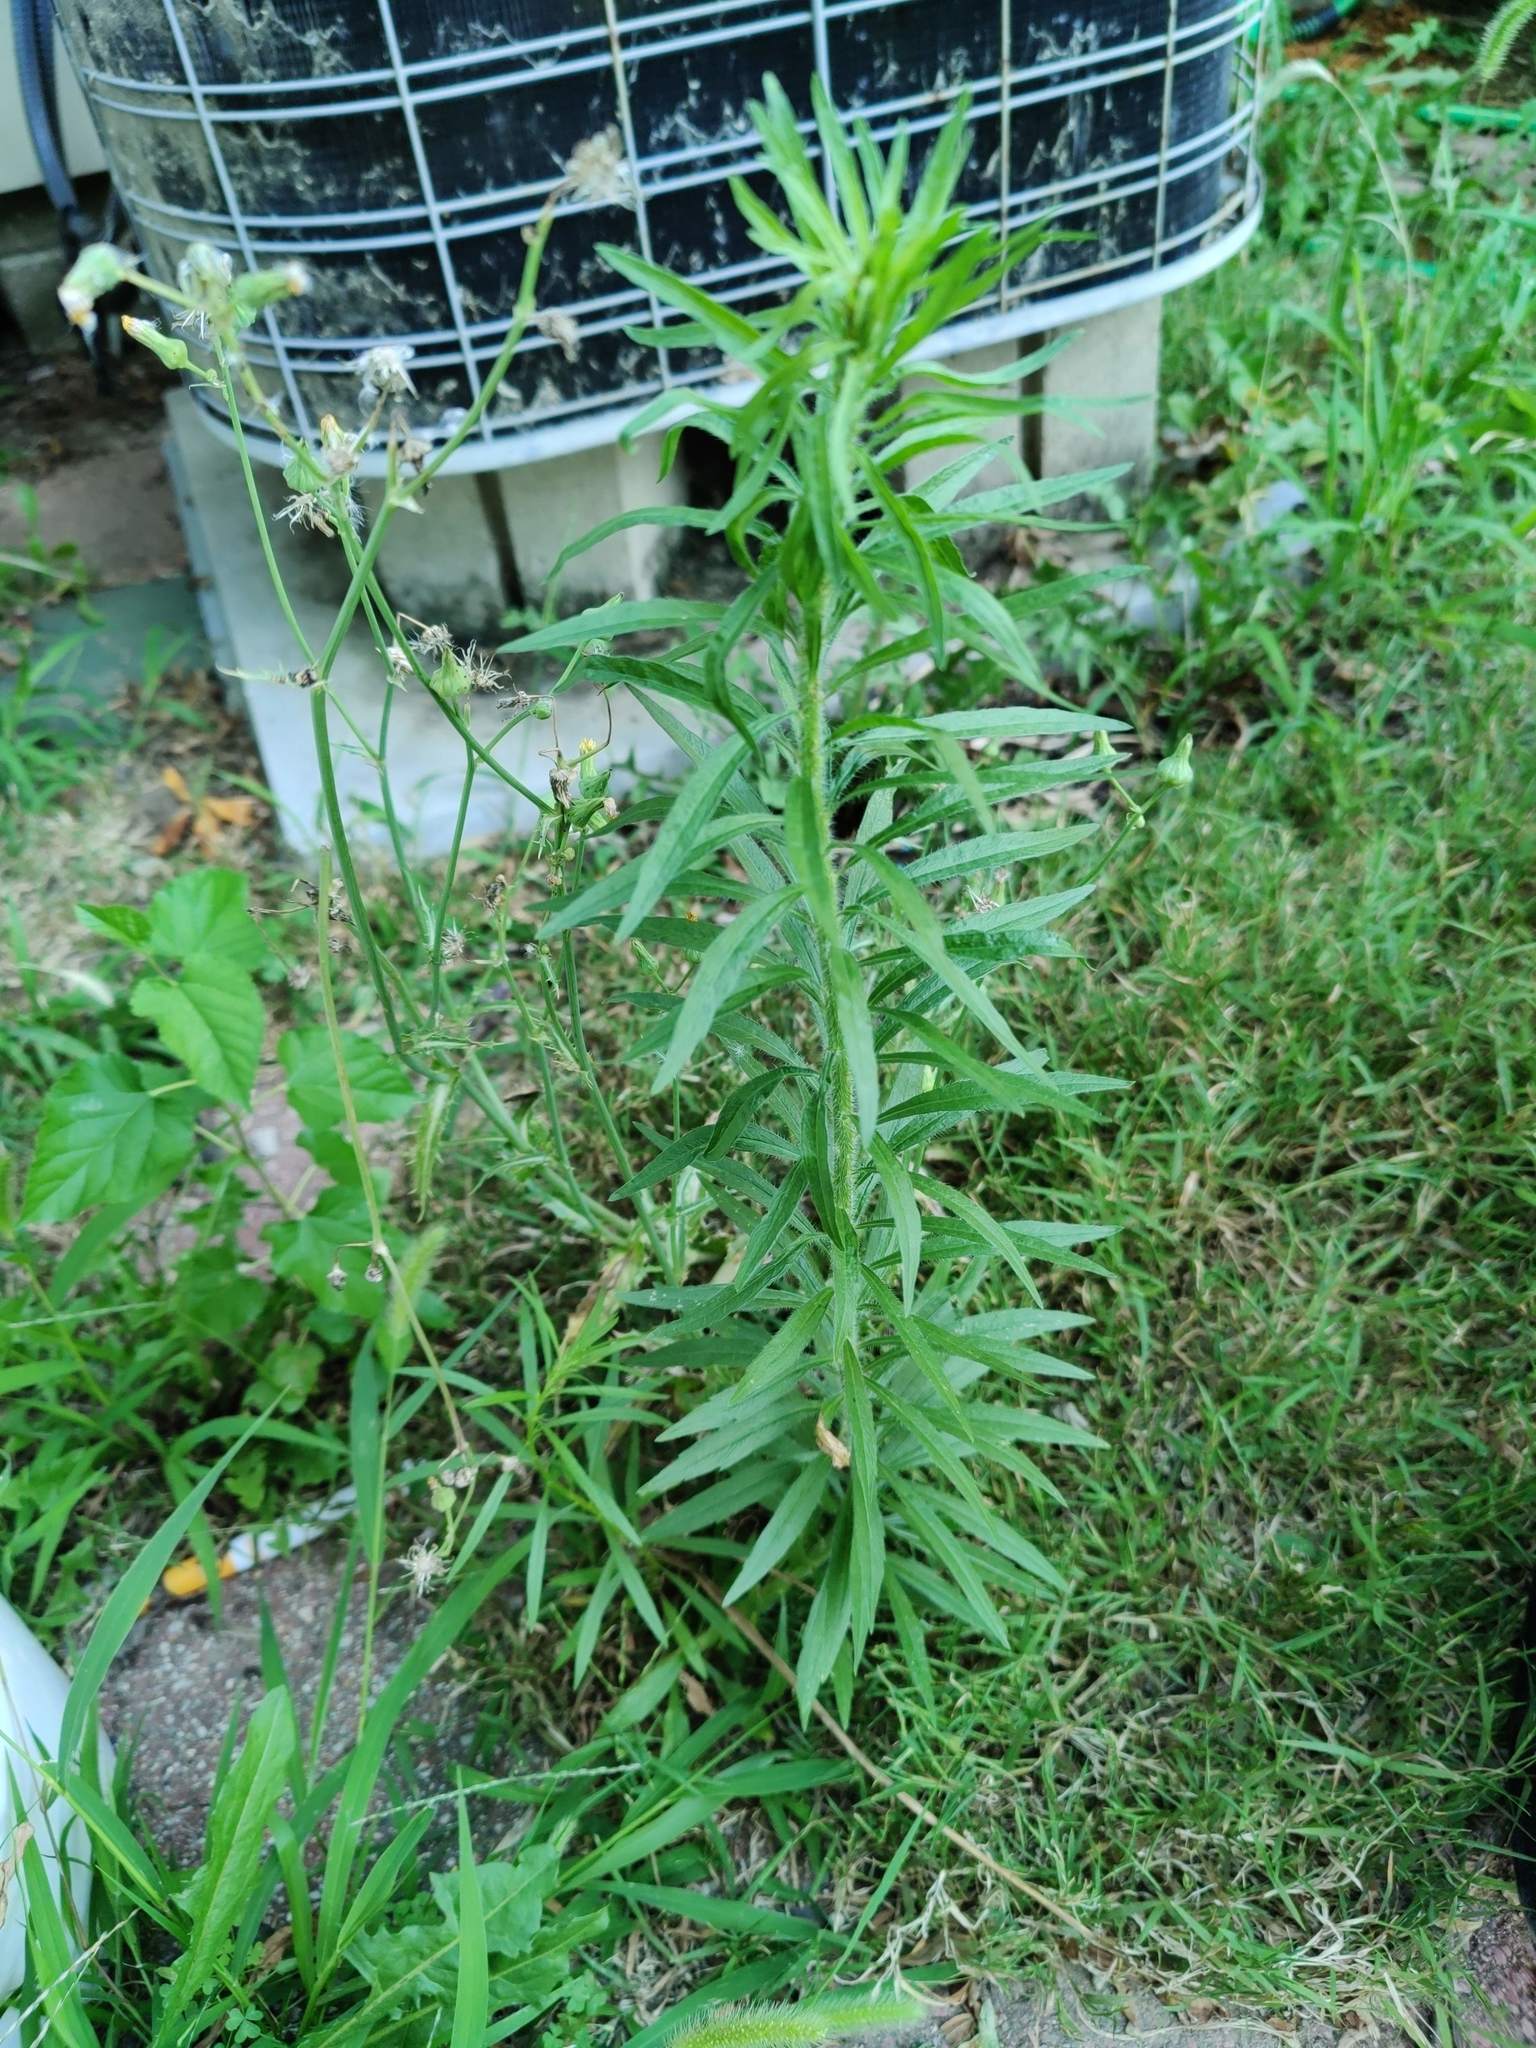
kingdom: Plantae
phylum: Tracheophyta
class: Magnoliopsida
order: Asterales
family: Asteraceae
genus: Erigeron
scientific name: Erigeron canadensis
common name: Canadian fleabane
